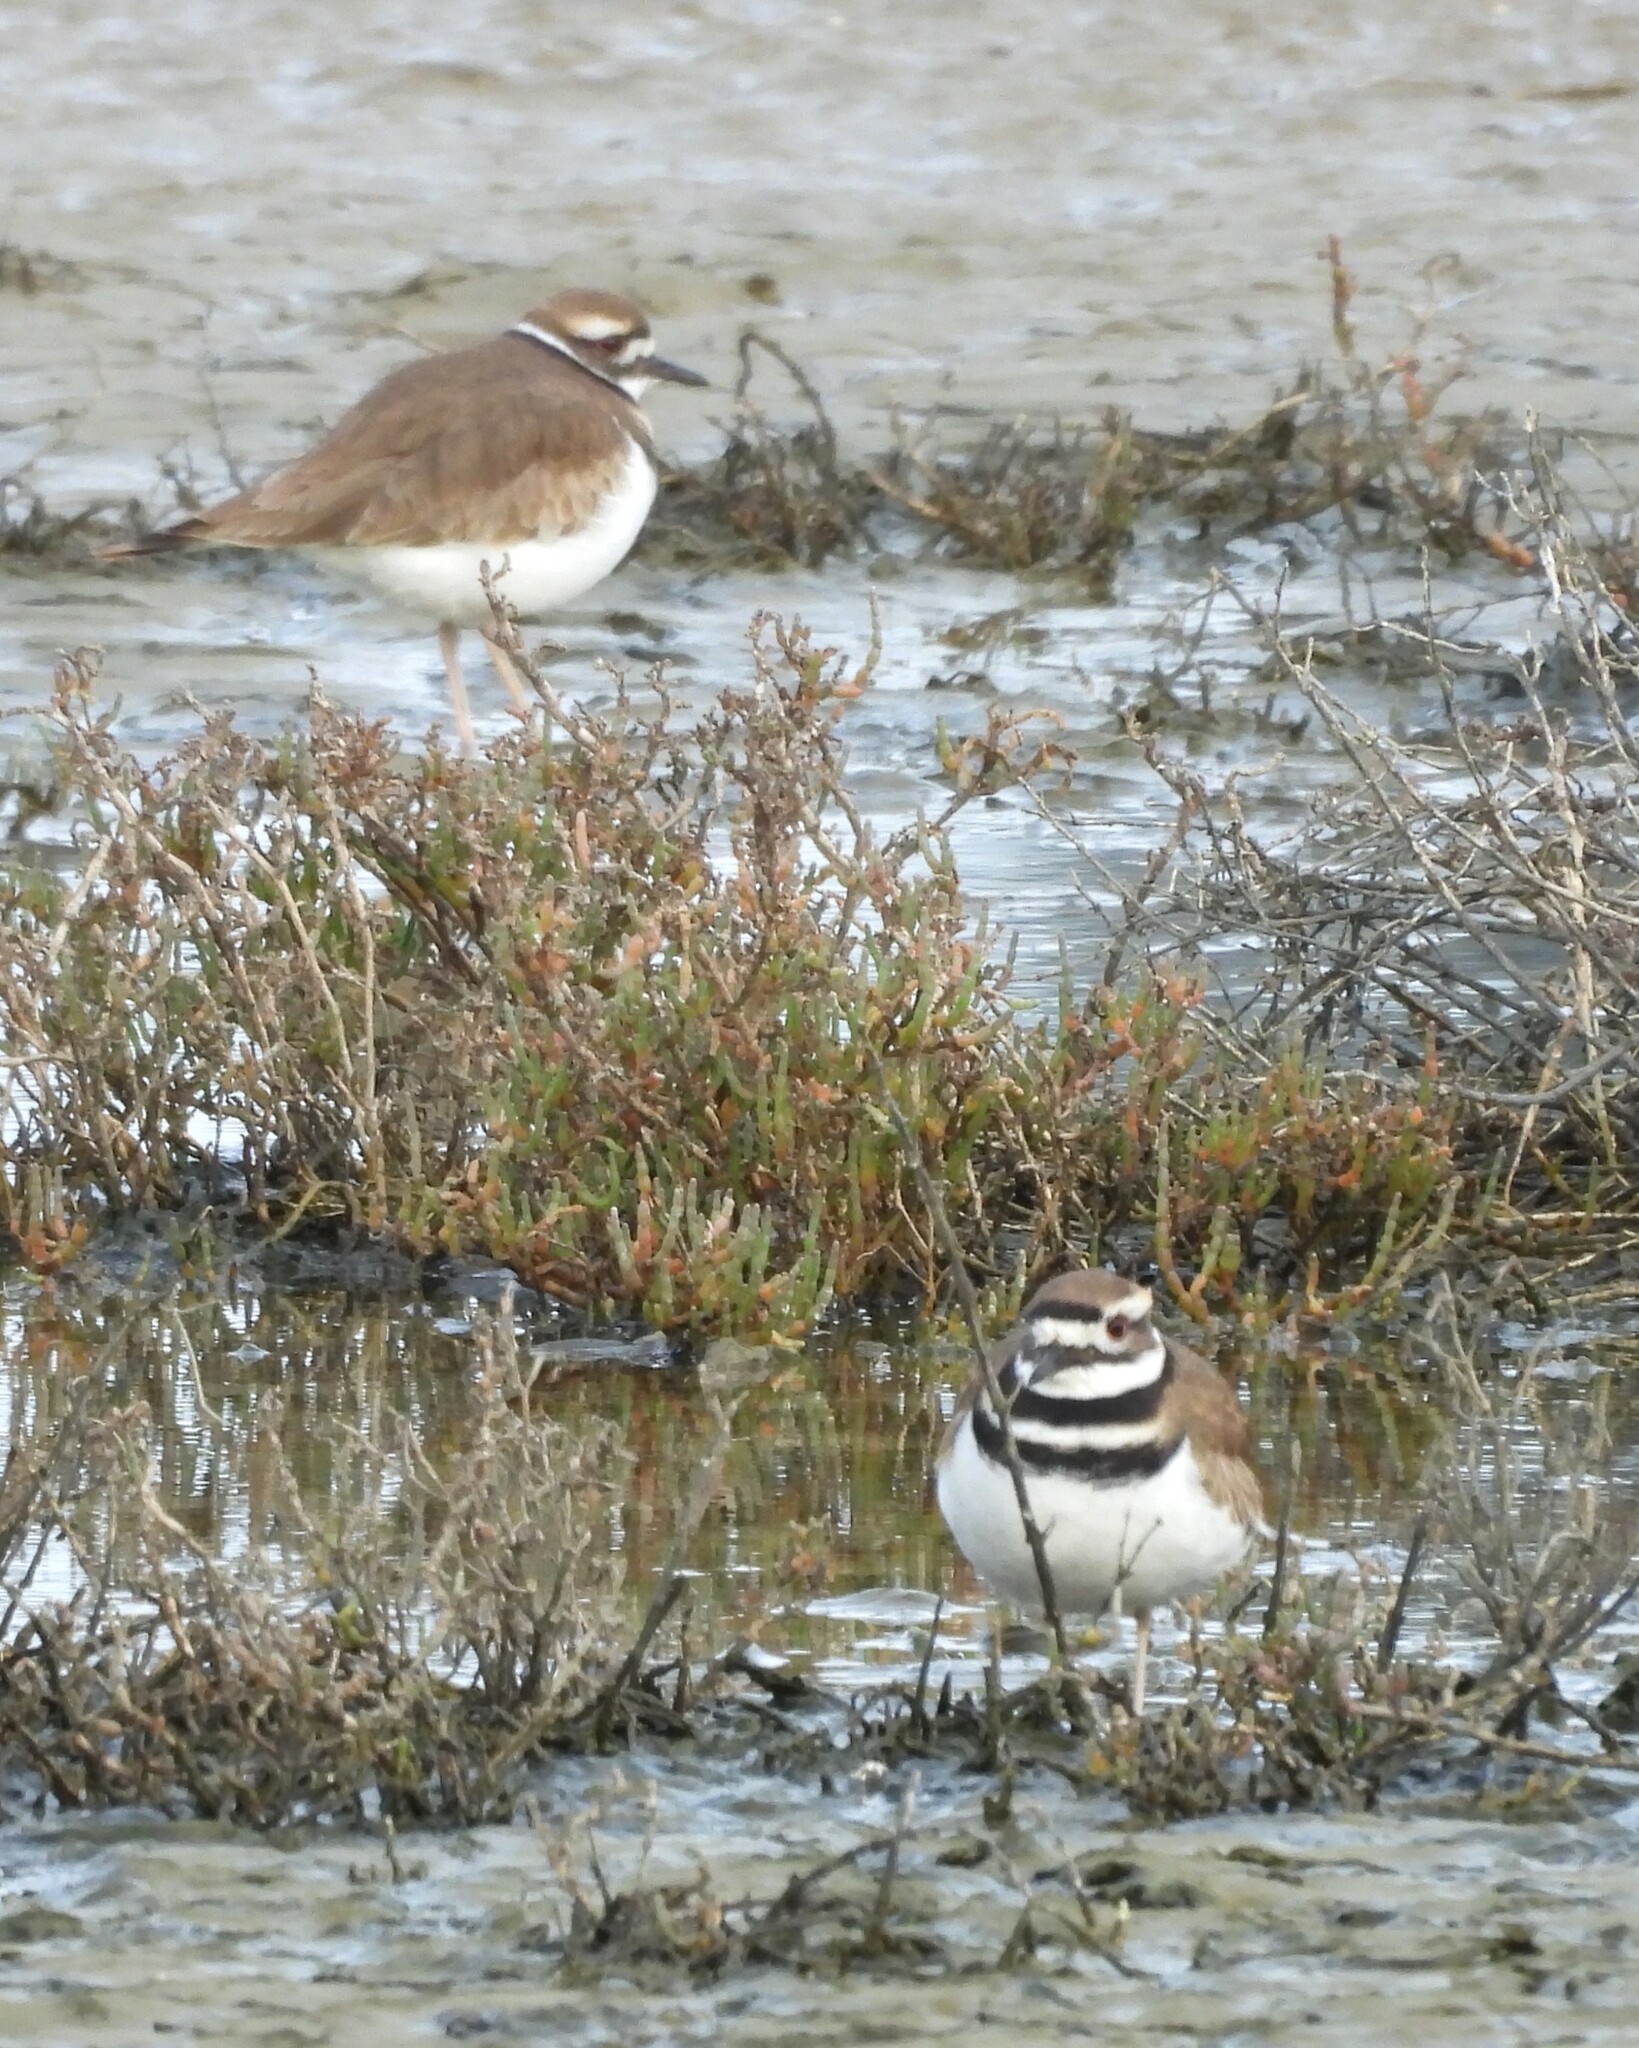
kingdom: Animalia
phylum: Chordata
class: Aves
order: Charadriiformes
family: Charadriidae
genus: Charadrius
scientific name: Charadrius vociferus
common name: Killdeer
